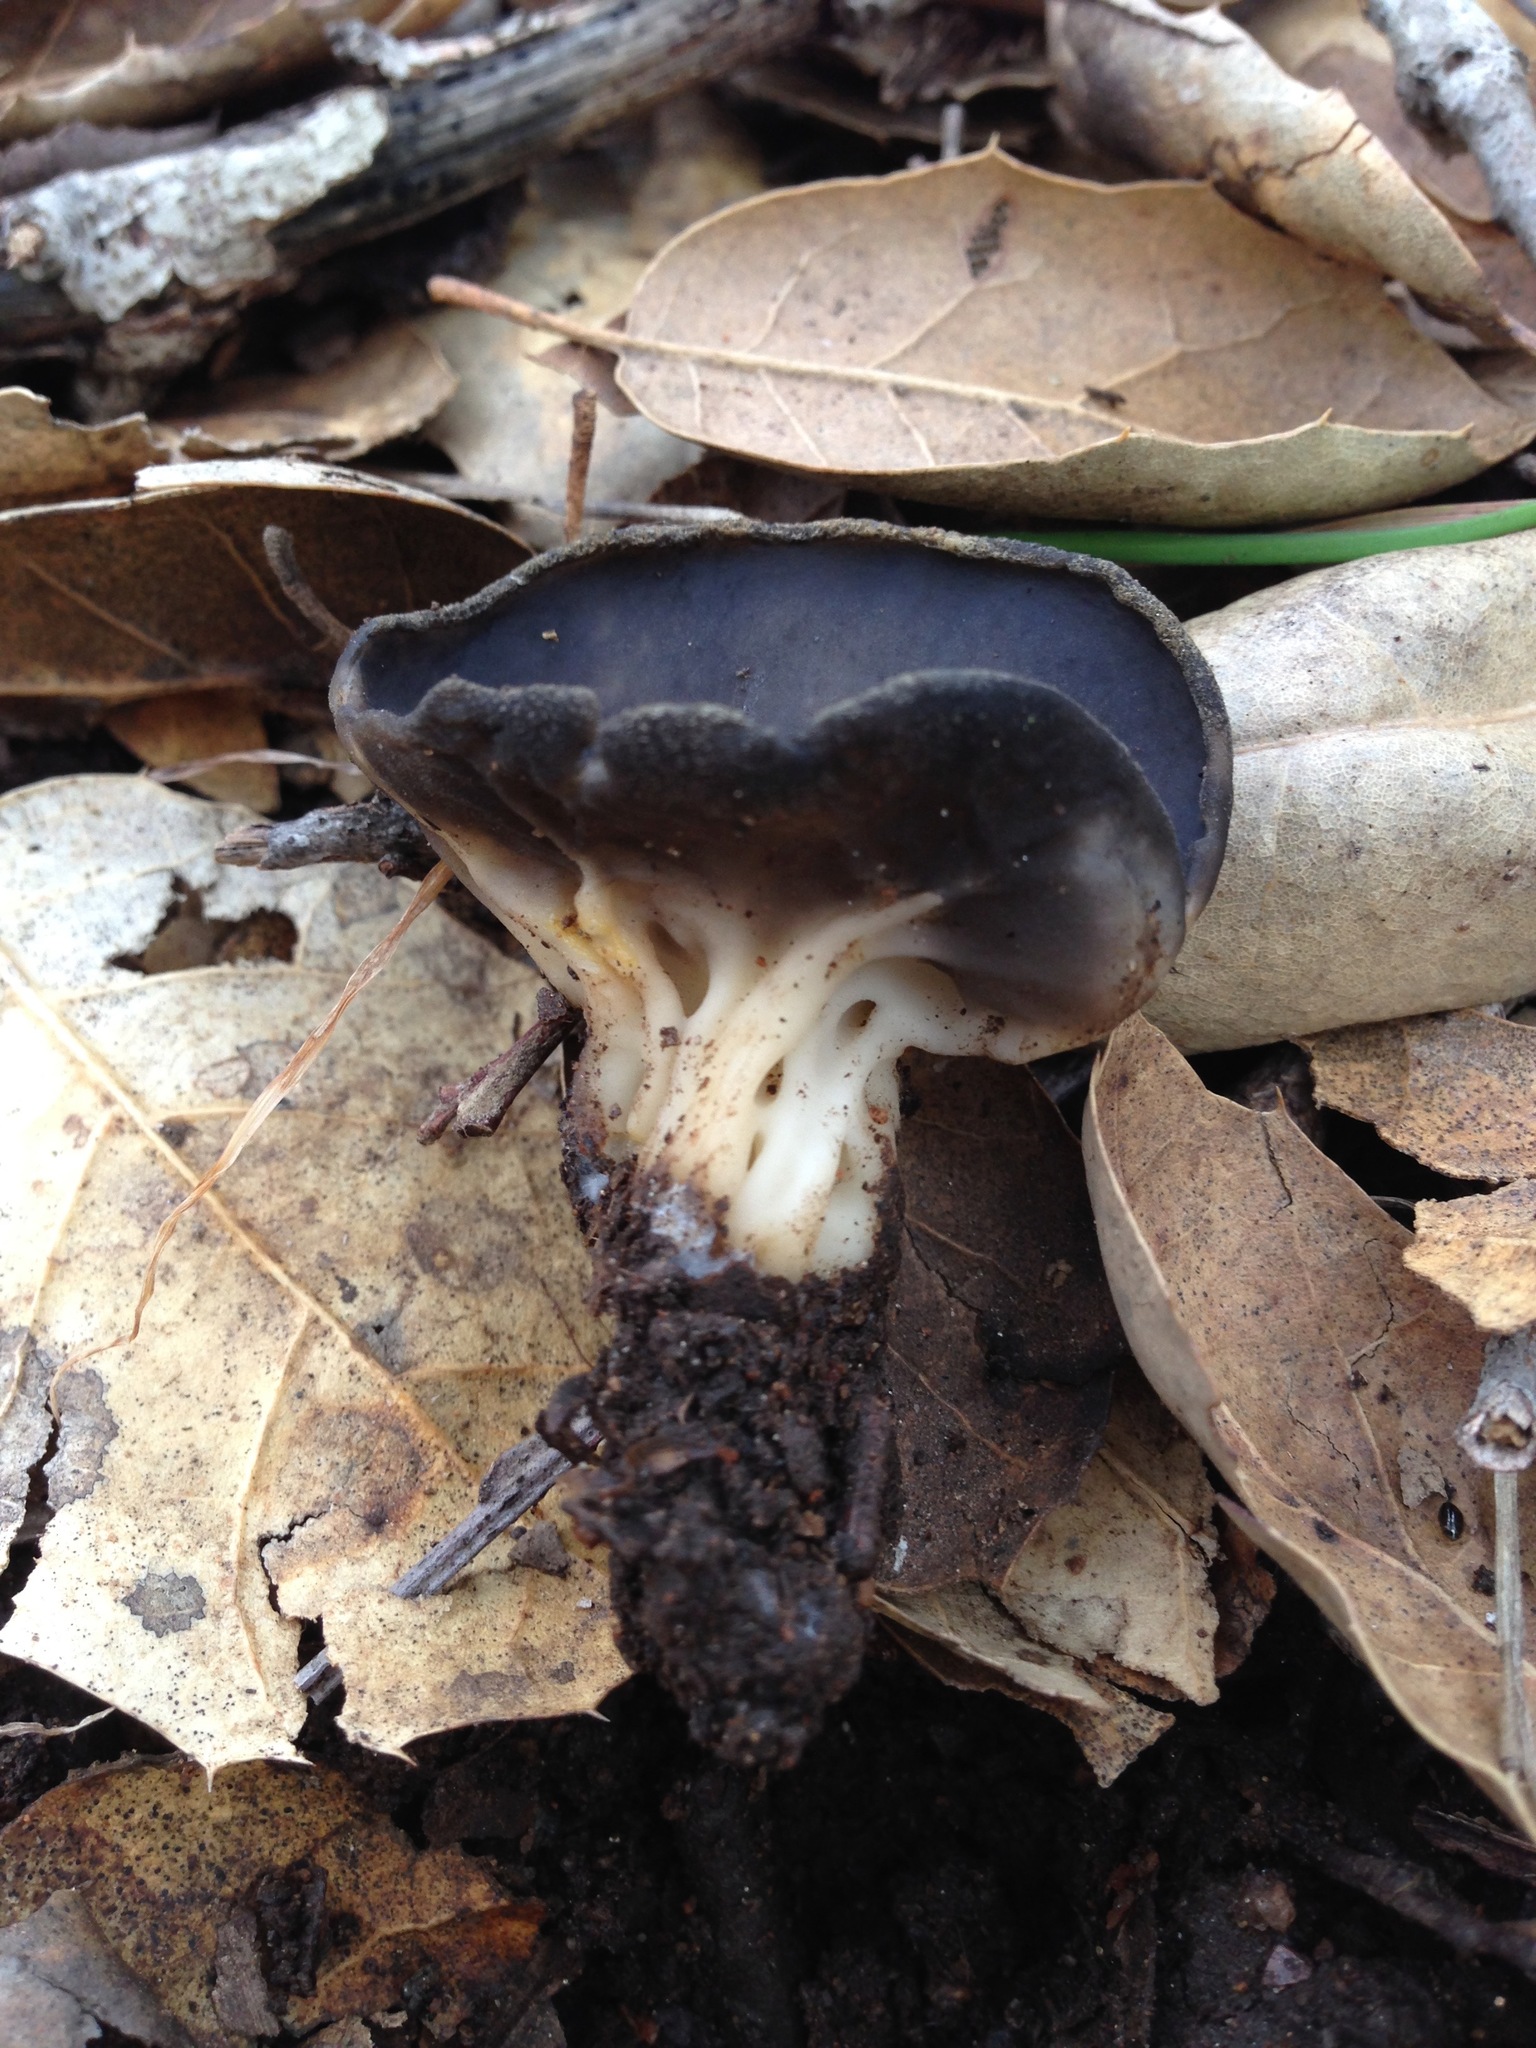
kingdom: Fungi
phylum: Ascomycota
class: Pezizomycetes
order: Pezizales
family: Helvellaceae
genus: Helvella
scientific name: Helvella acetabulum
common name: Vinegar cup
